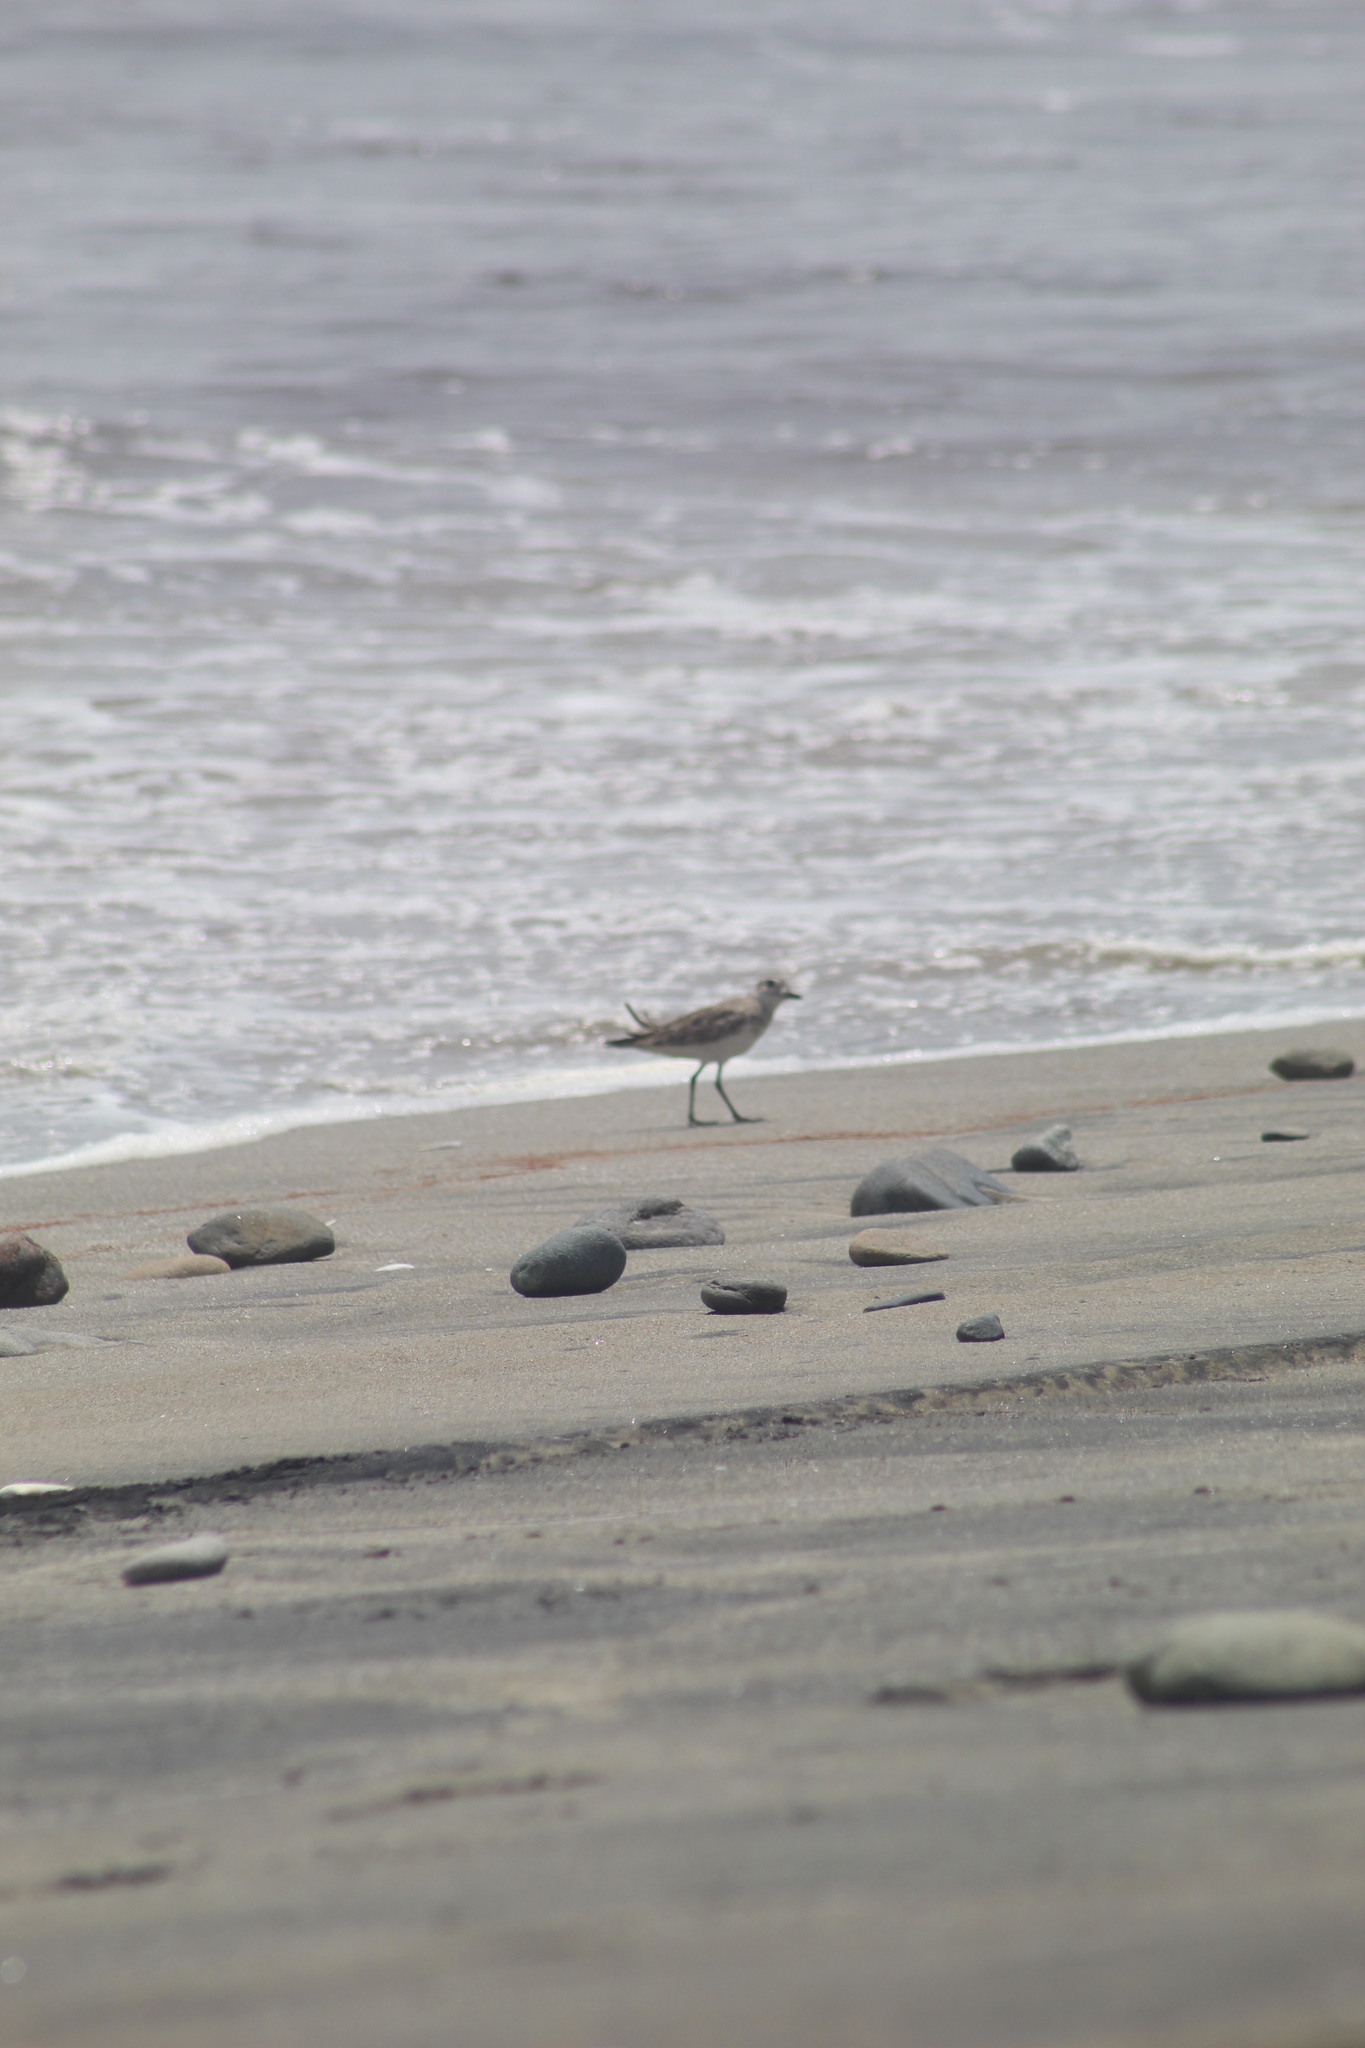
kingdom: Animalia
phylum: Chordata
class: Aves
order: Charadriiformes
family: Charadriidae
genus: Pluvialis
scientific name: Pluvialis squatarola
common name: Grey plover
